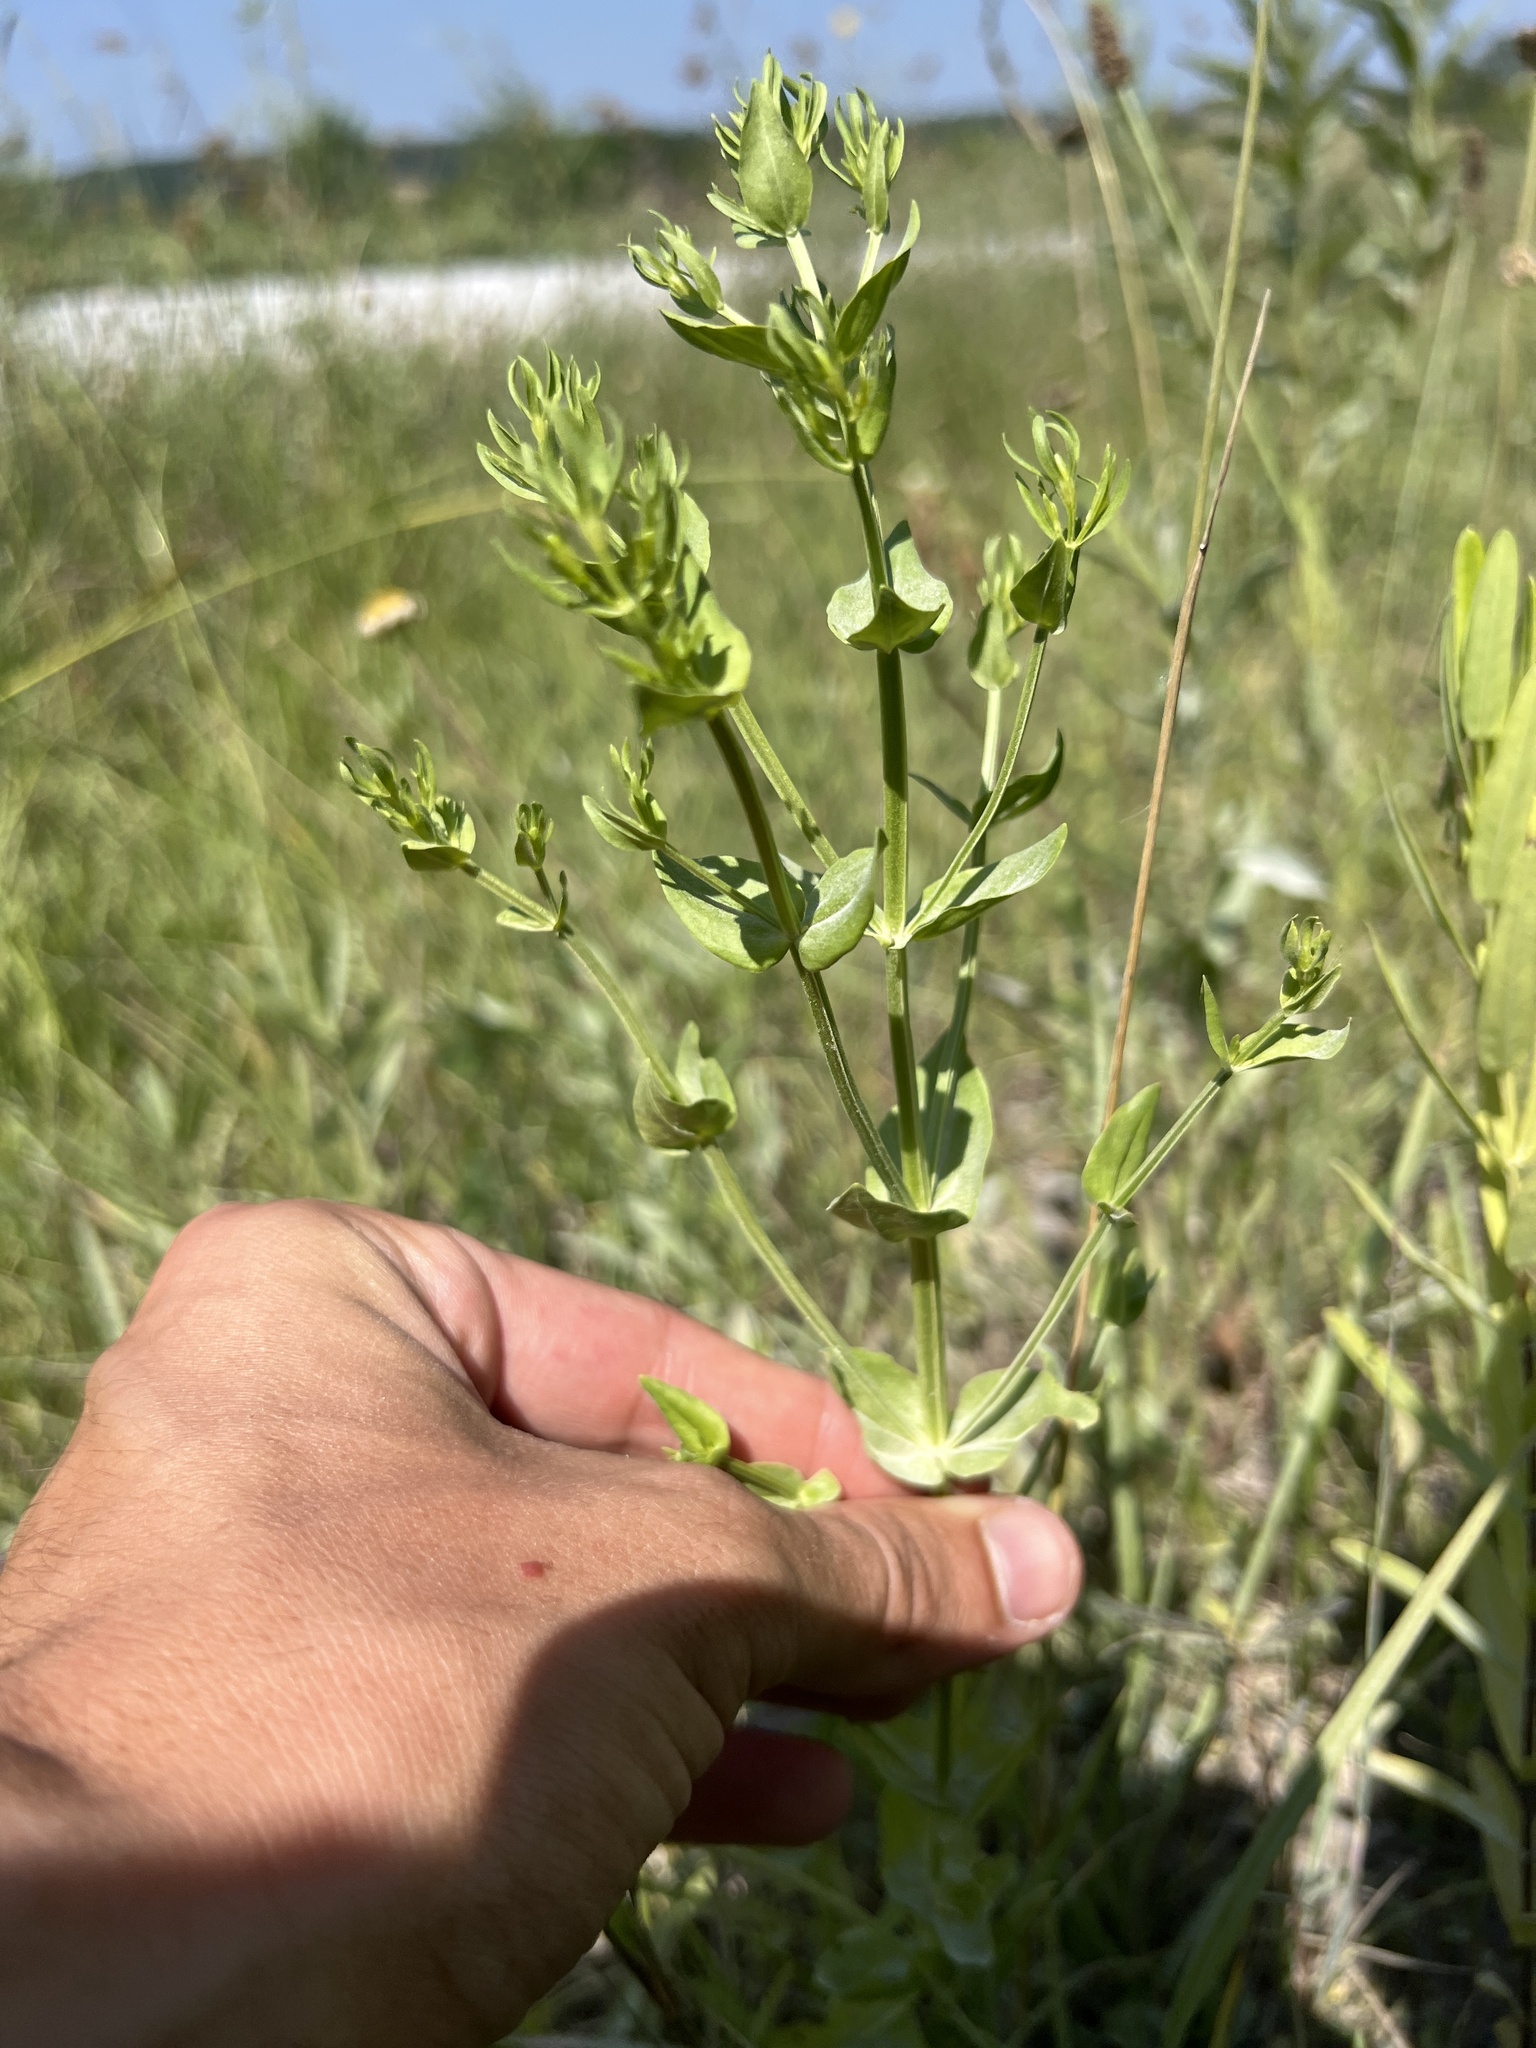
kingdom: Plantae
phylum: Tracheophyta
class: Magnoliopsida
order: Gentianales
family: Gentianaceae
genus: Sabatia
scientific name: Sabatia angularis
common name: Rose-pink
